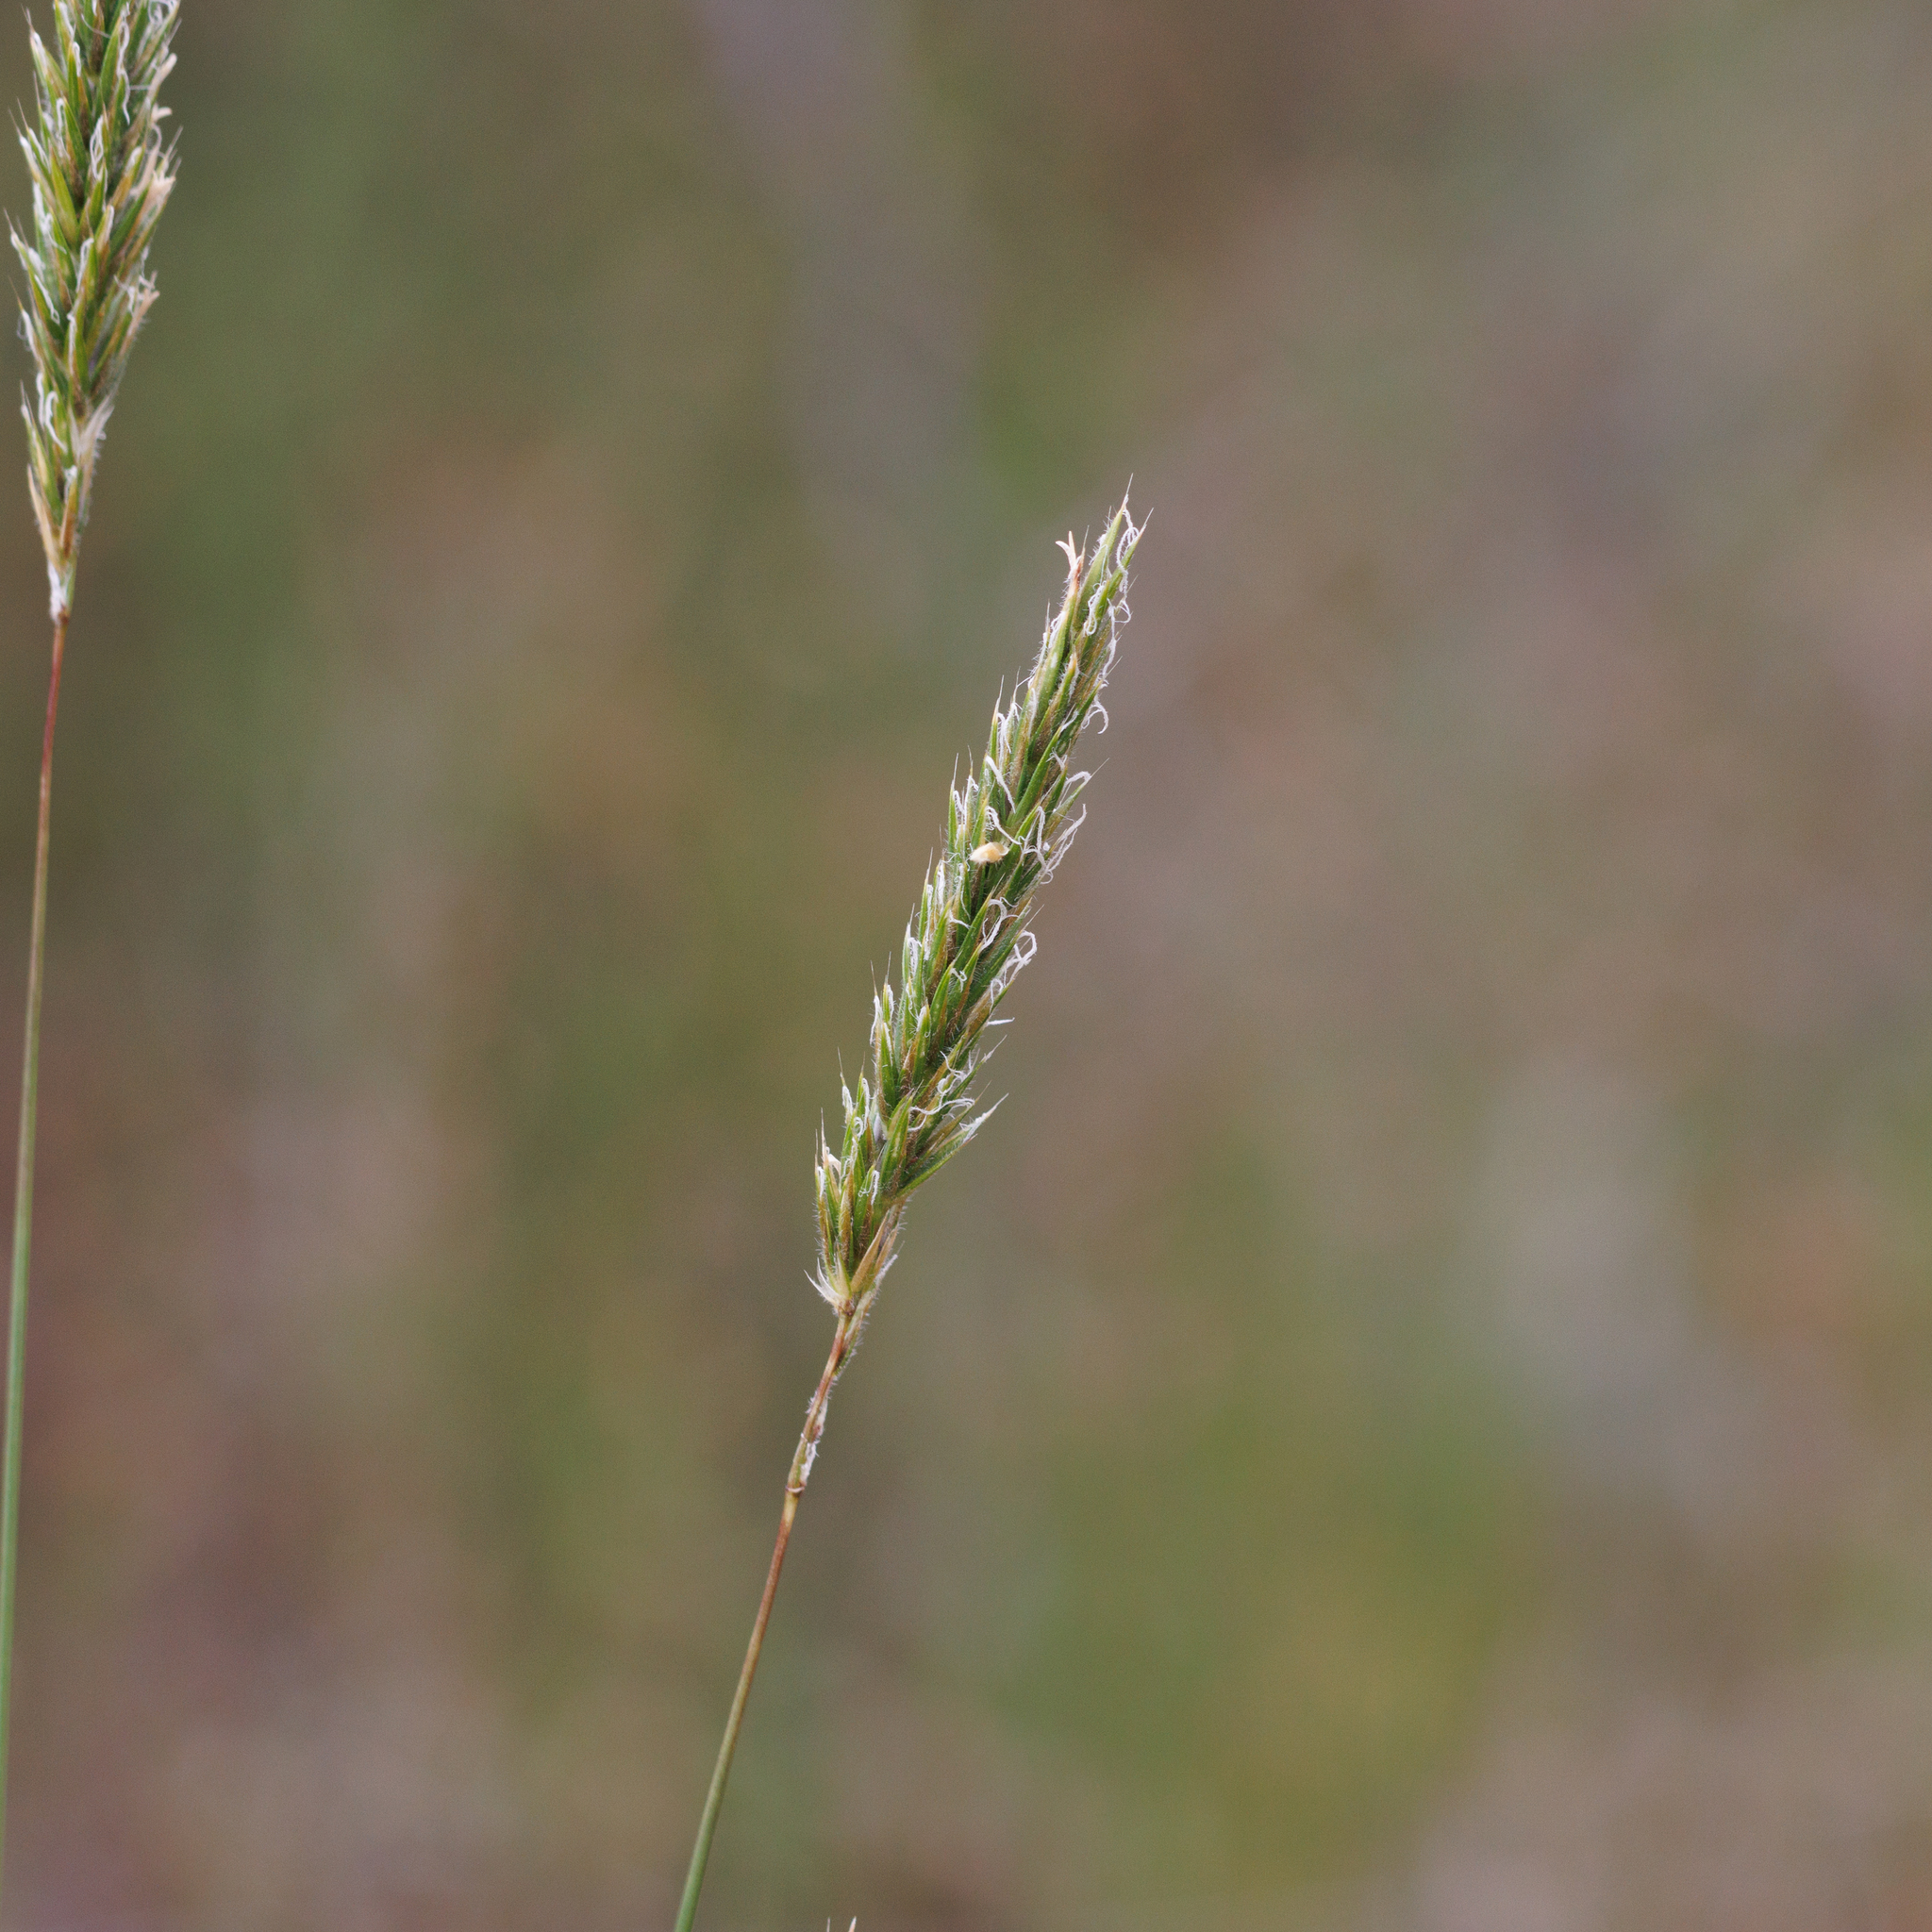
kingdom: Plantae
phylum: Tracheophyta
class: Liliopsida
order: Poales
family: Poaceae
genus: Anthoxanthum
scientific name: Anthoxanthum odoratum
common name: Sweet vernalgrass
